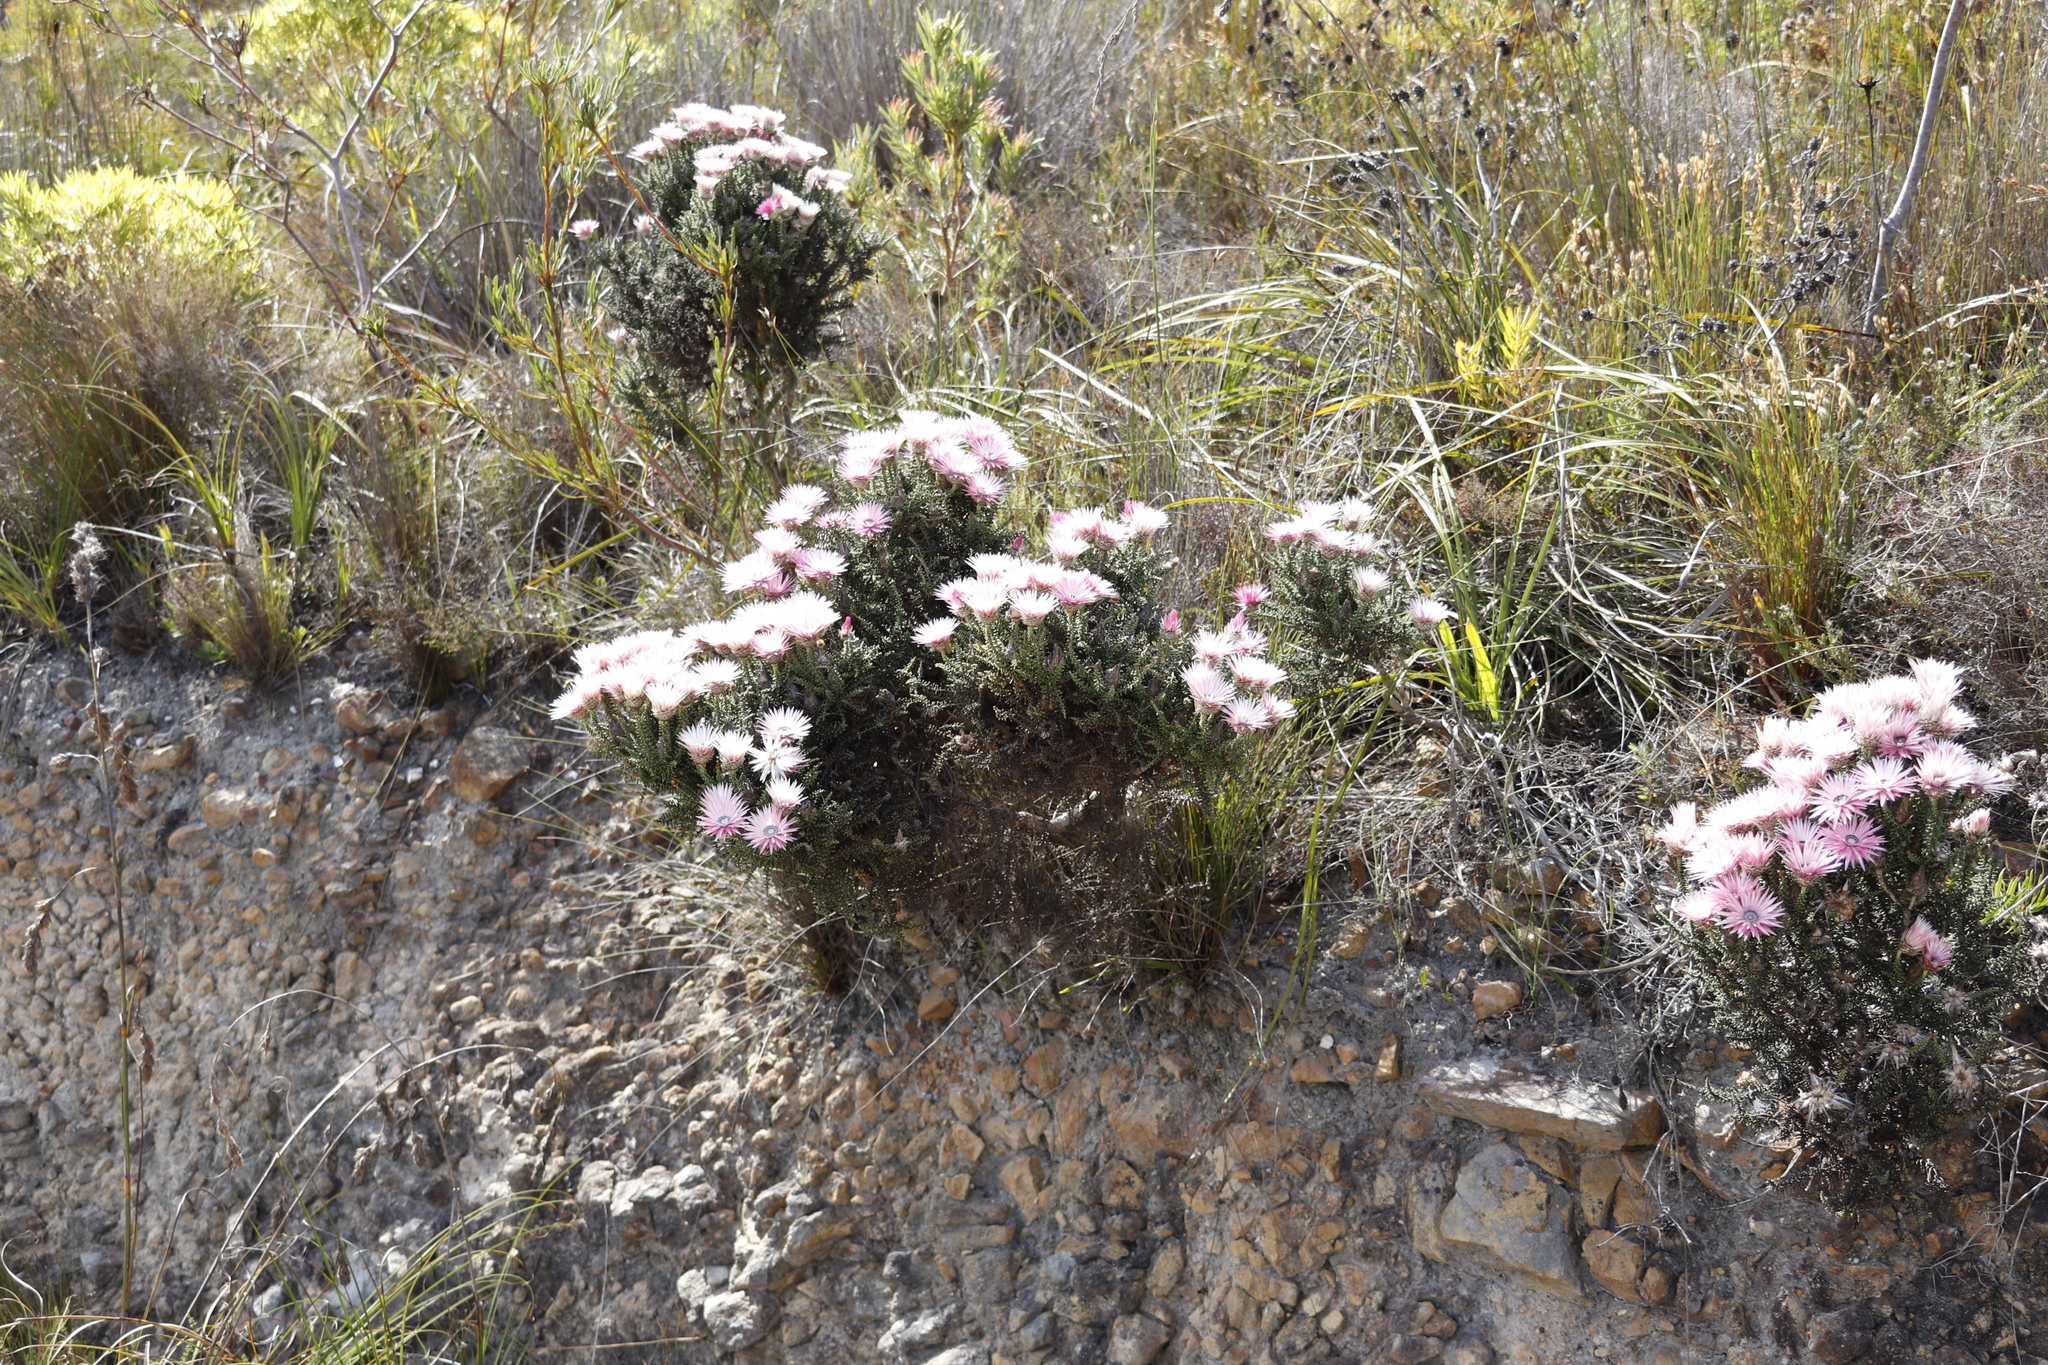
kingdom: Plantae
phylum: Tracheophyta
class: Magnoliopsida
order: Asterales
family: Asteraceae
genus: Phaenocoma
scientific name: Phaenocoma prolifera
